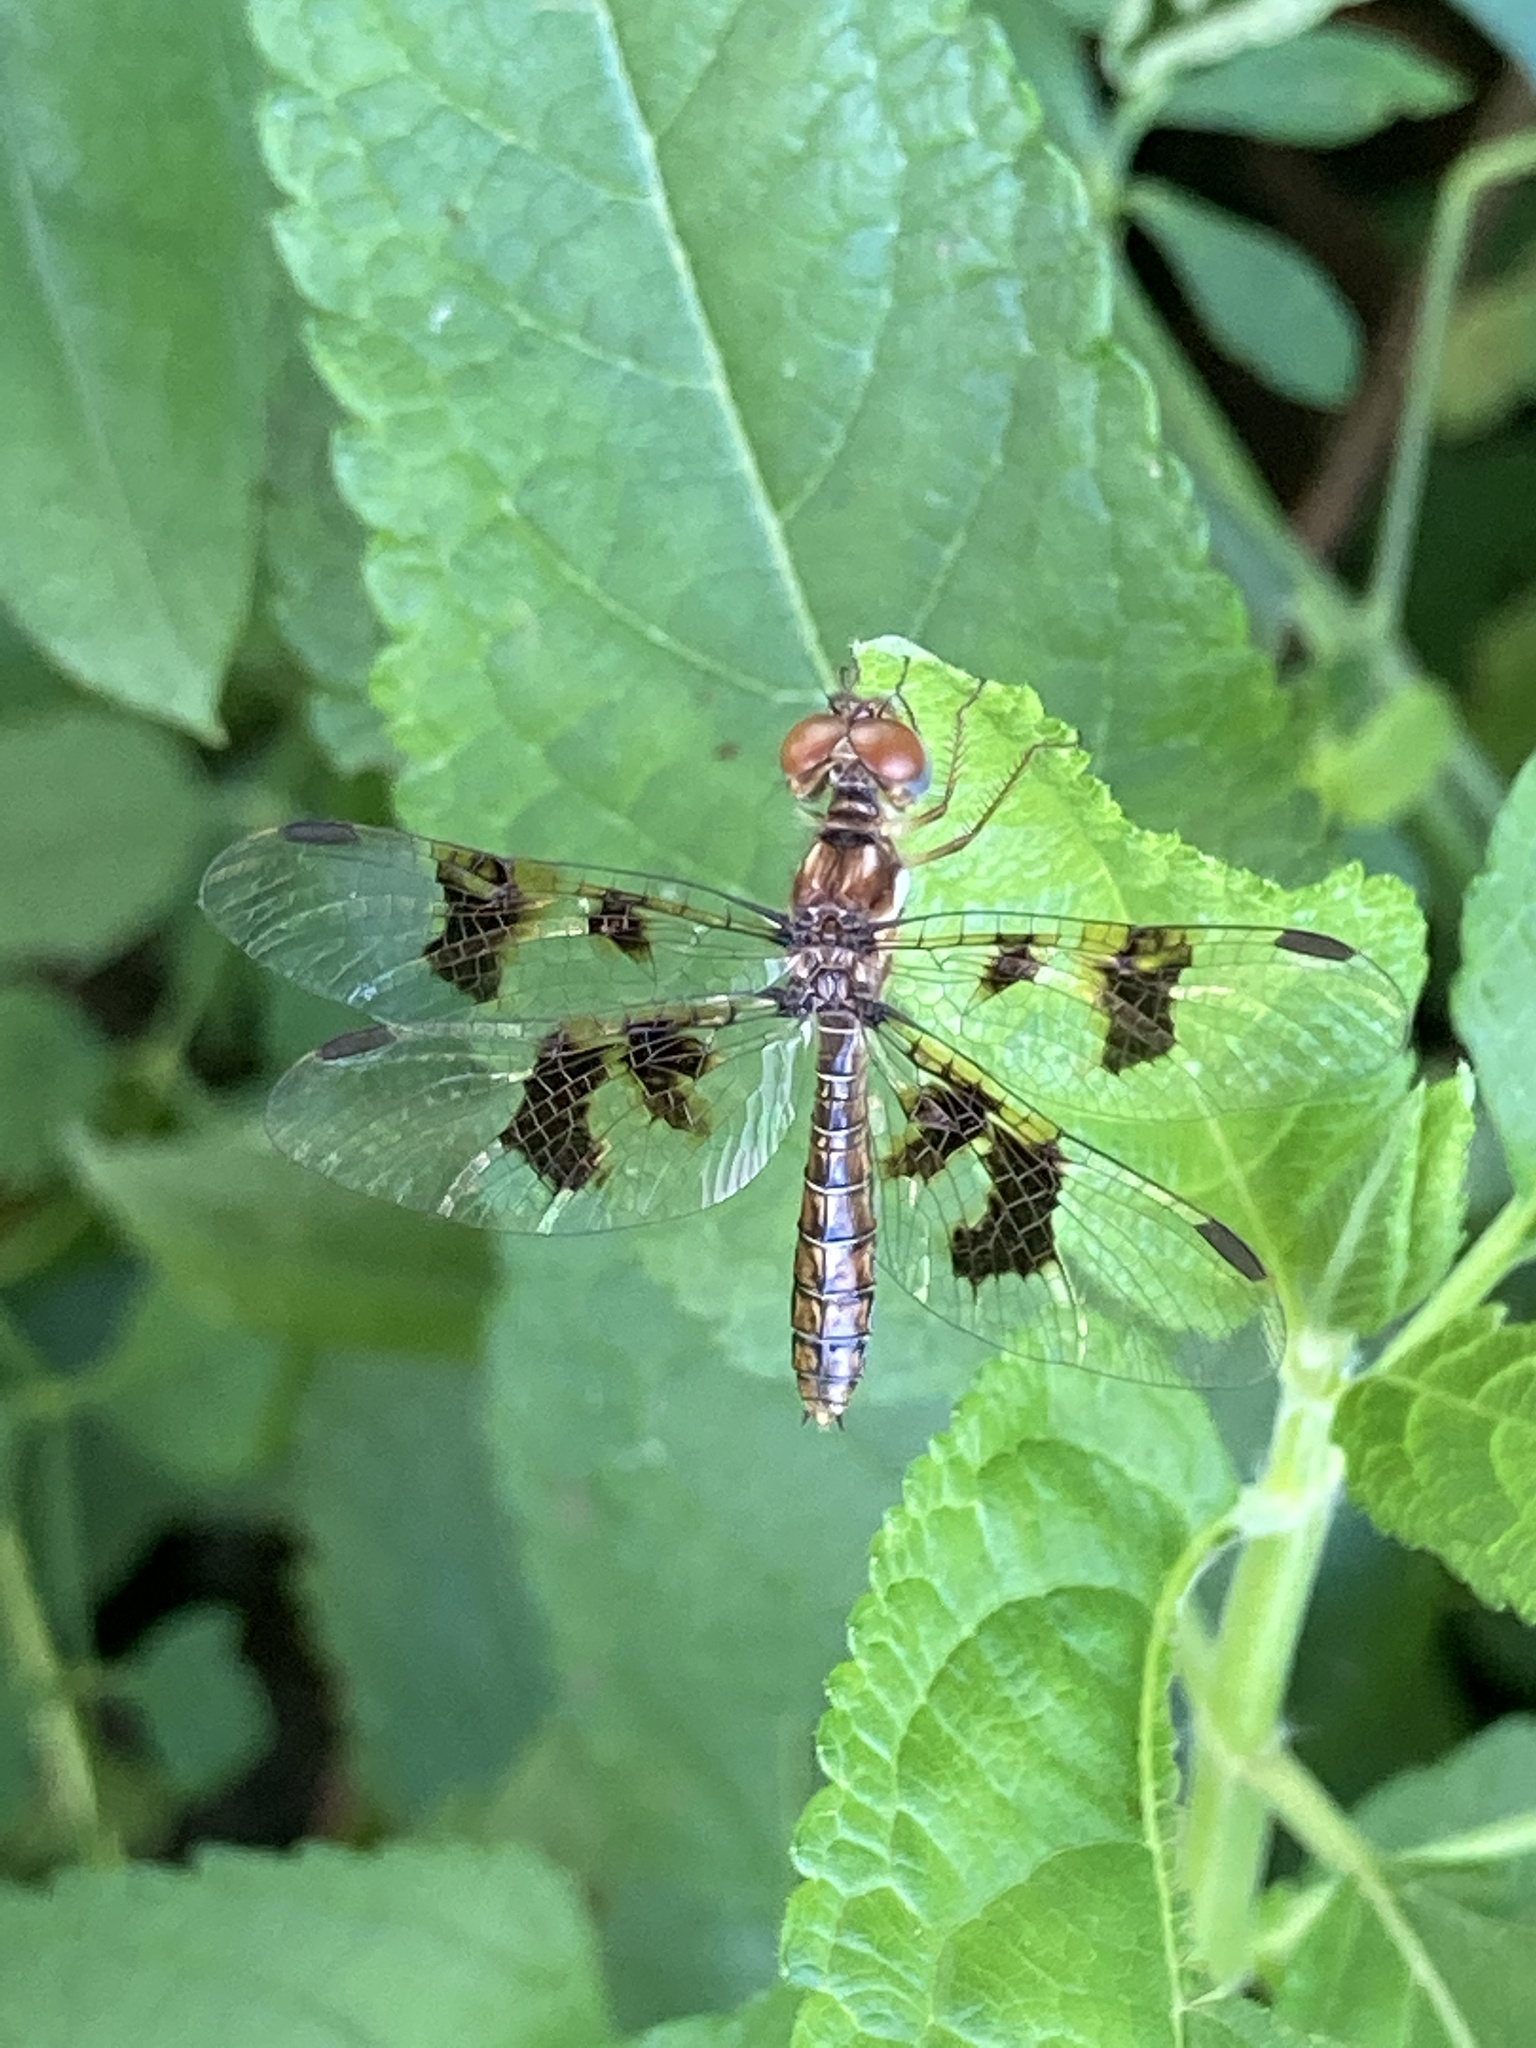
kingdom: Animalia
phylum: Arthropoda
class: Insecta
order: Odonata
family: Libellulidae
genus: Perithemis
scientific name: Perithemis tenera
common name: Eastern amberwing
